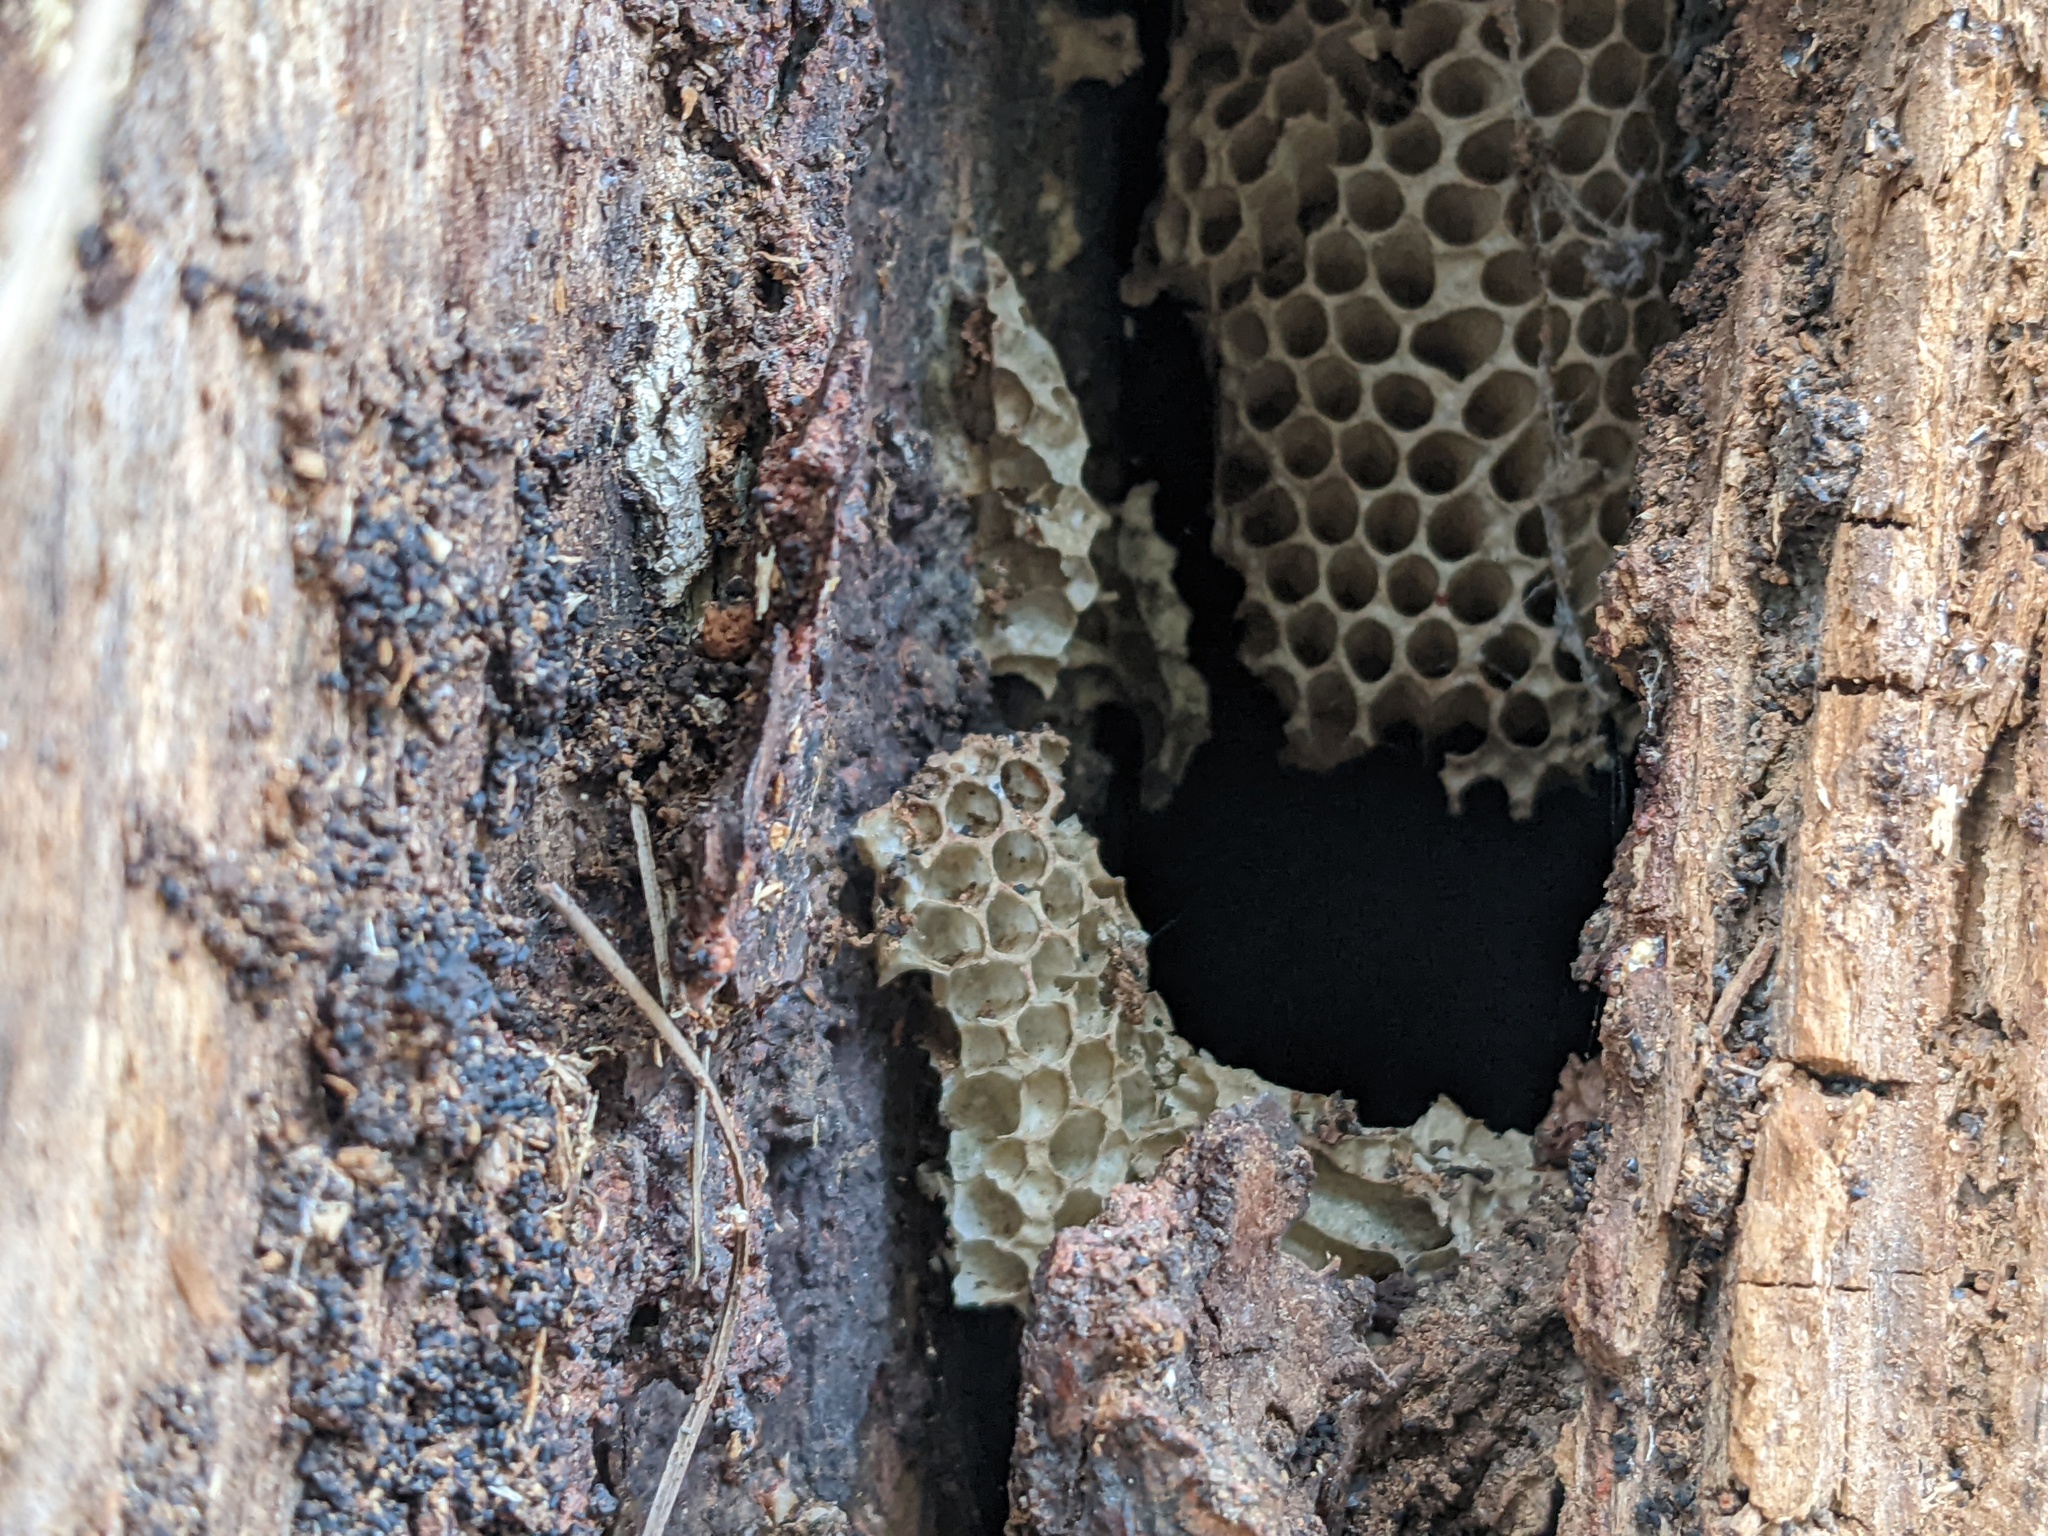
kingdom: Animalia
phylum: Arthropoda
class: Insecta
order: Hymenoptera
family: Apidae
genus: Apis
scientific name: Apis mellifera
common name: Honey bee
